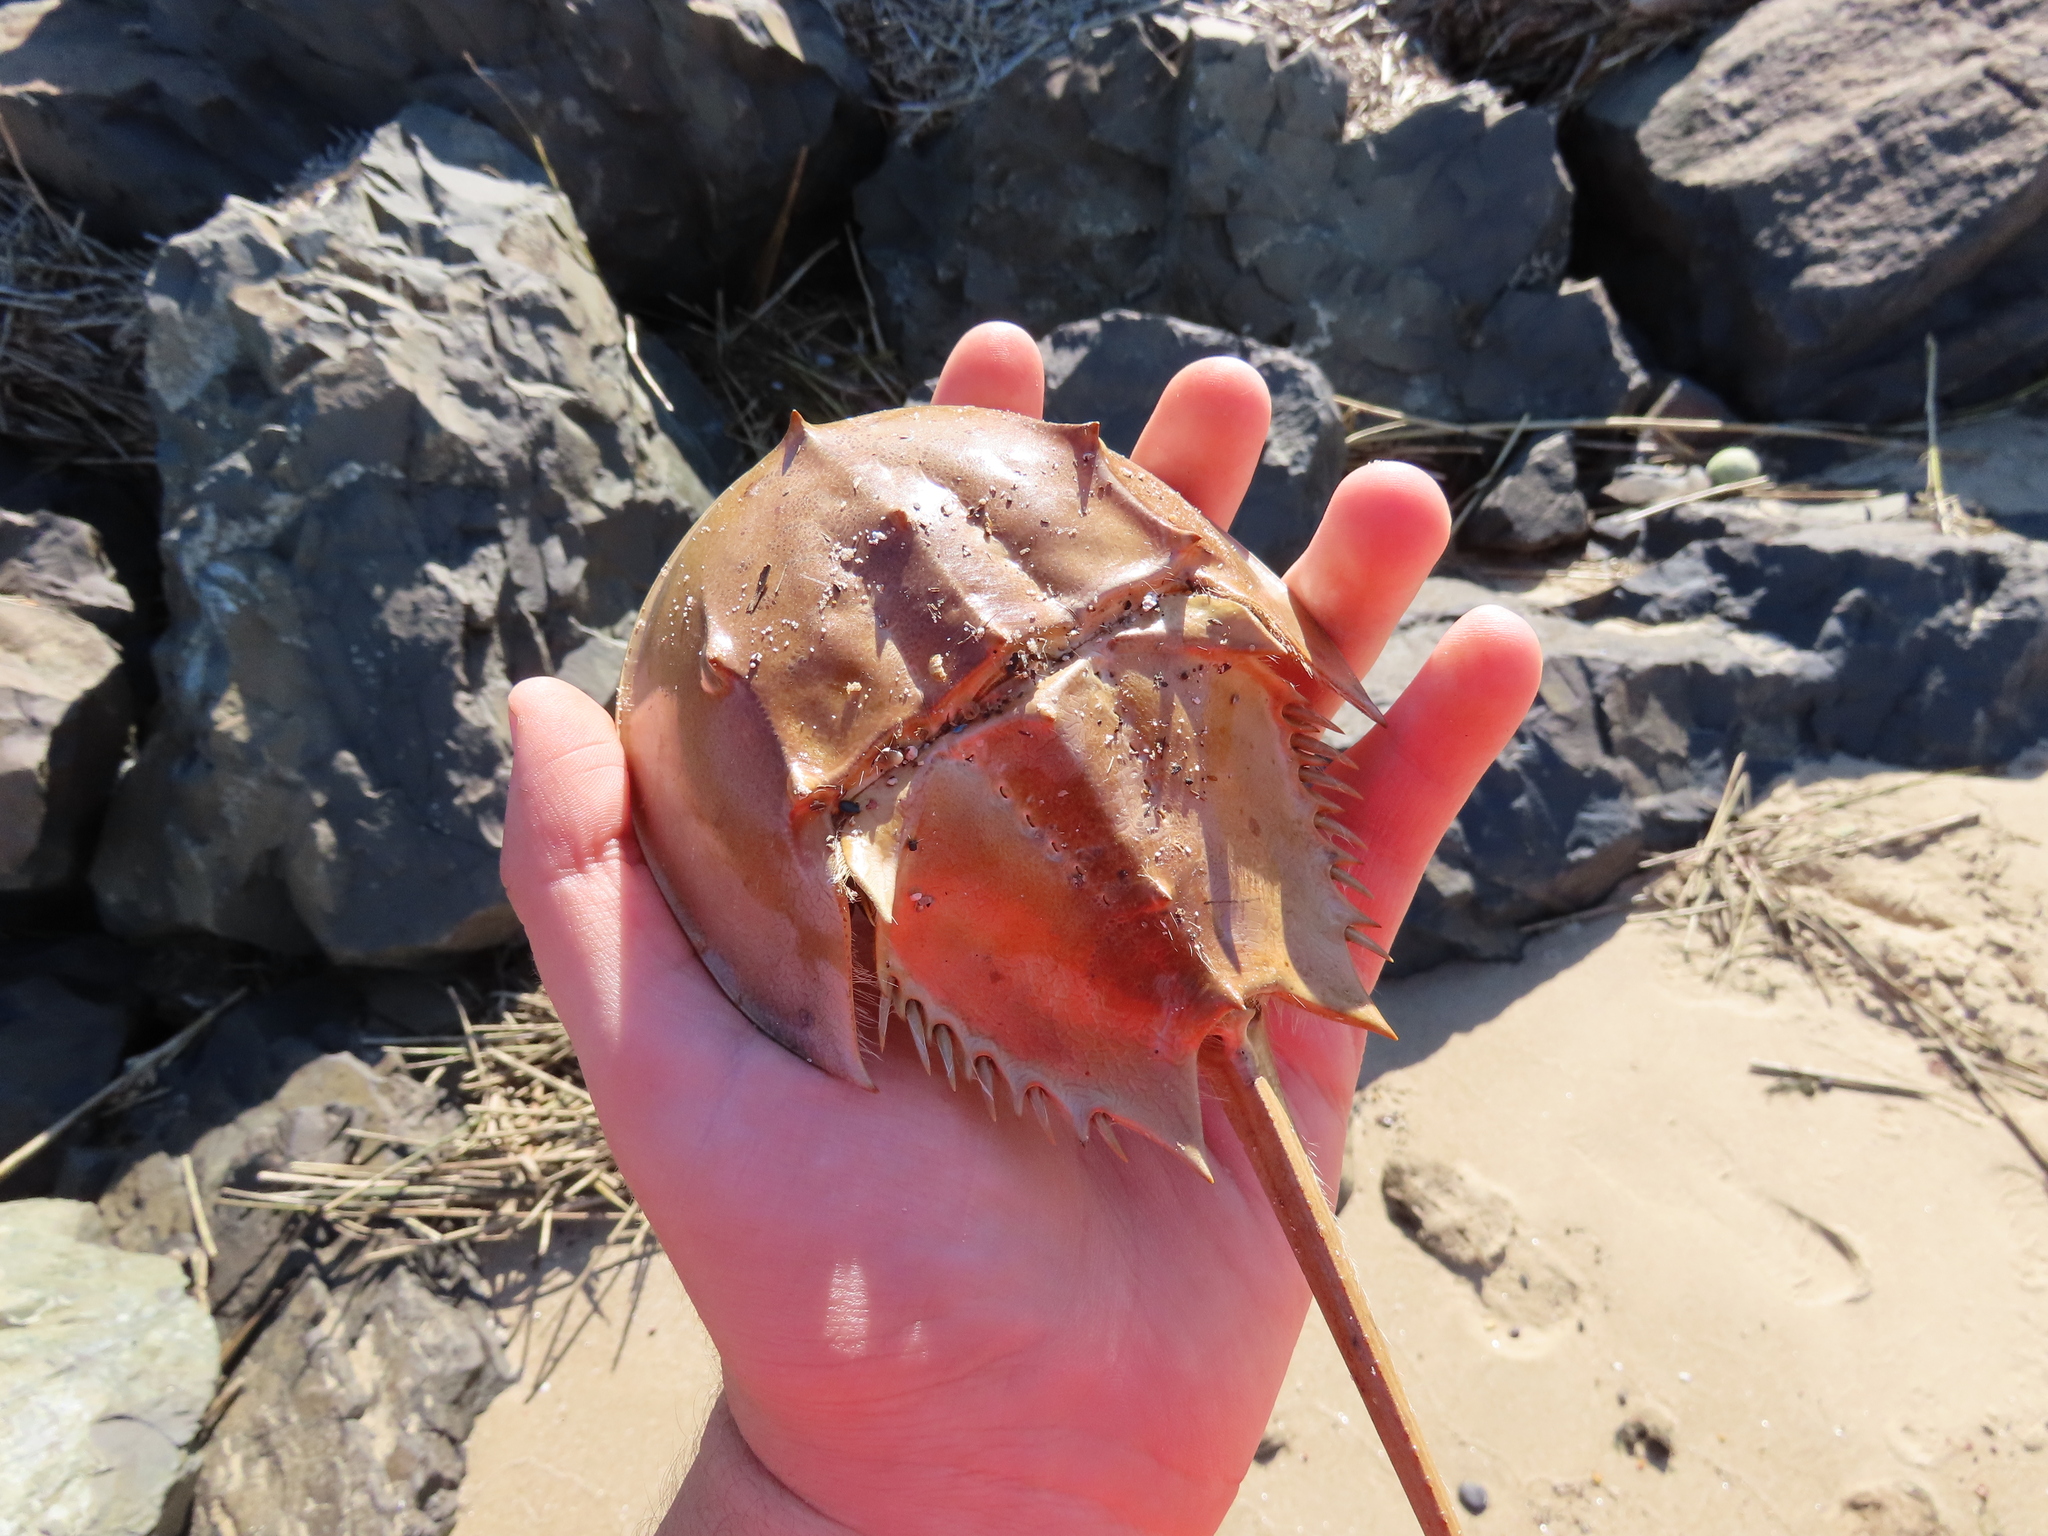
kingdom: Animalia
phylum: Arthropoda
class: Merostomata
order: Xiphosurida
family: Limulidae
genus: Limulus
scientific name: Limulus polyphemus
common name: Horseshoe crab
